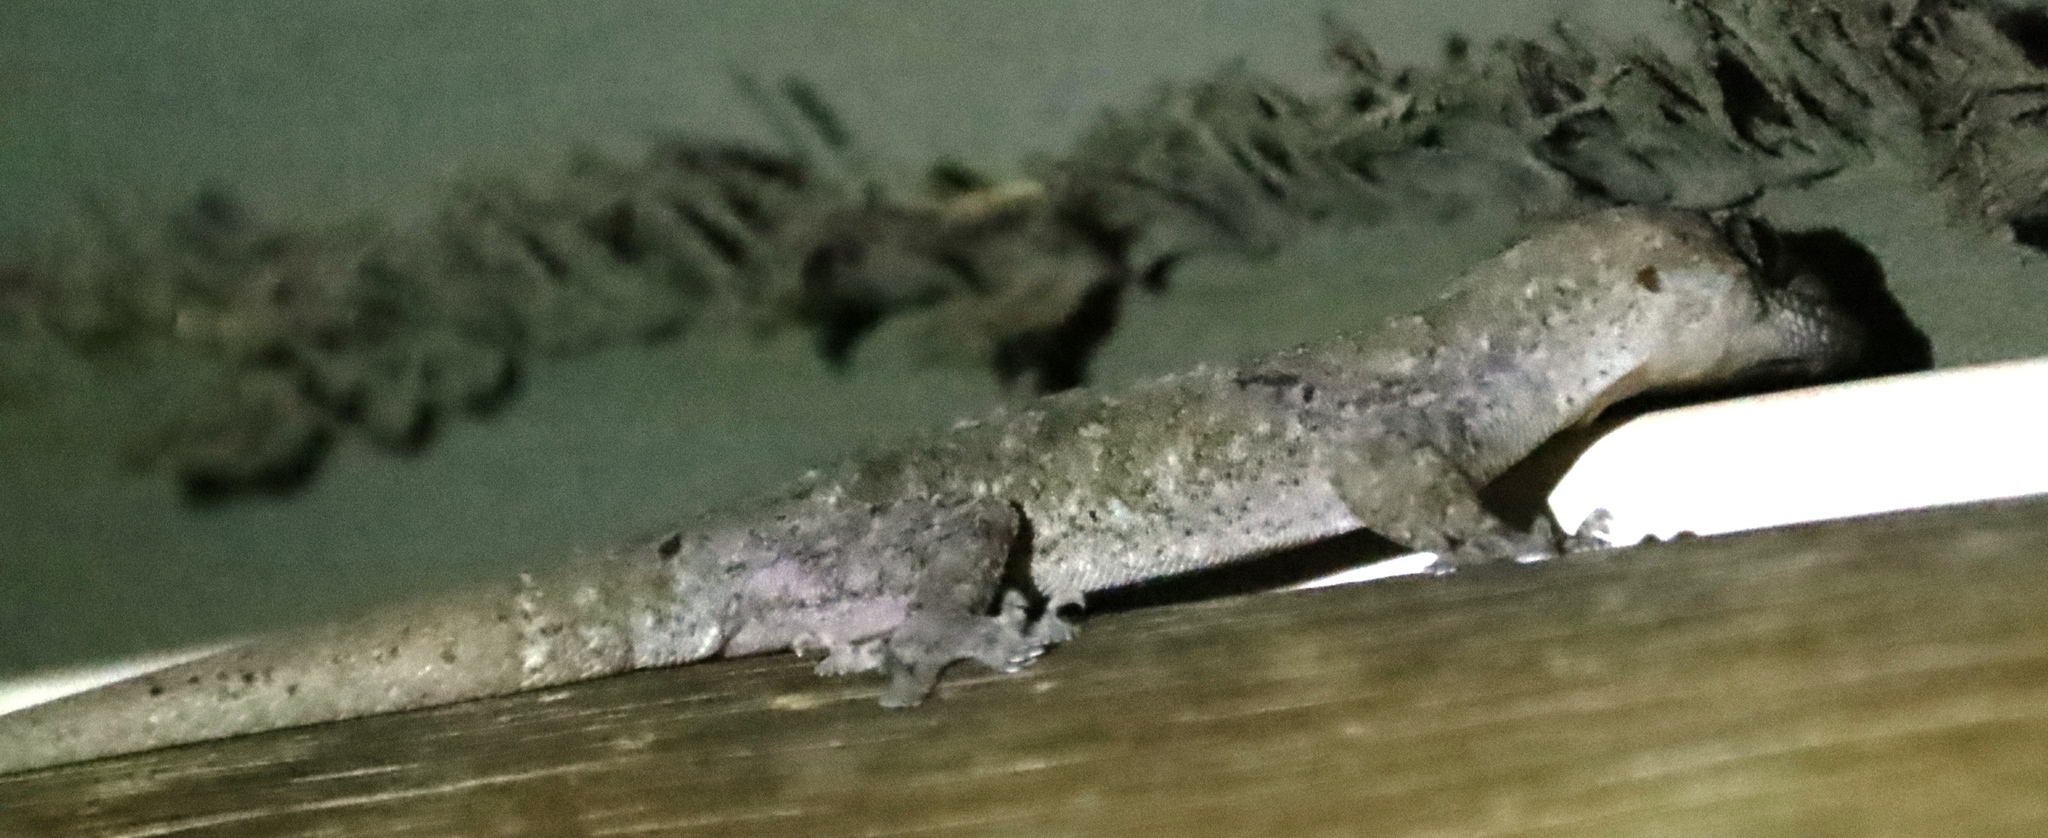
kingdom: Animalia
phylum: Chordata
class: Squamata
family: Gekkonidae
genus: Hemidactylus
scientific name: Hemidactylus mabouia
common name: House gecko
